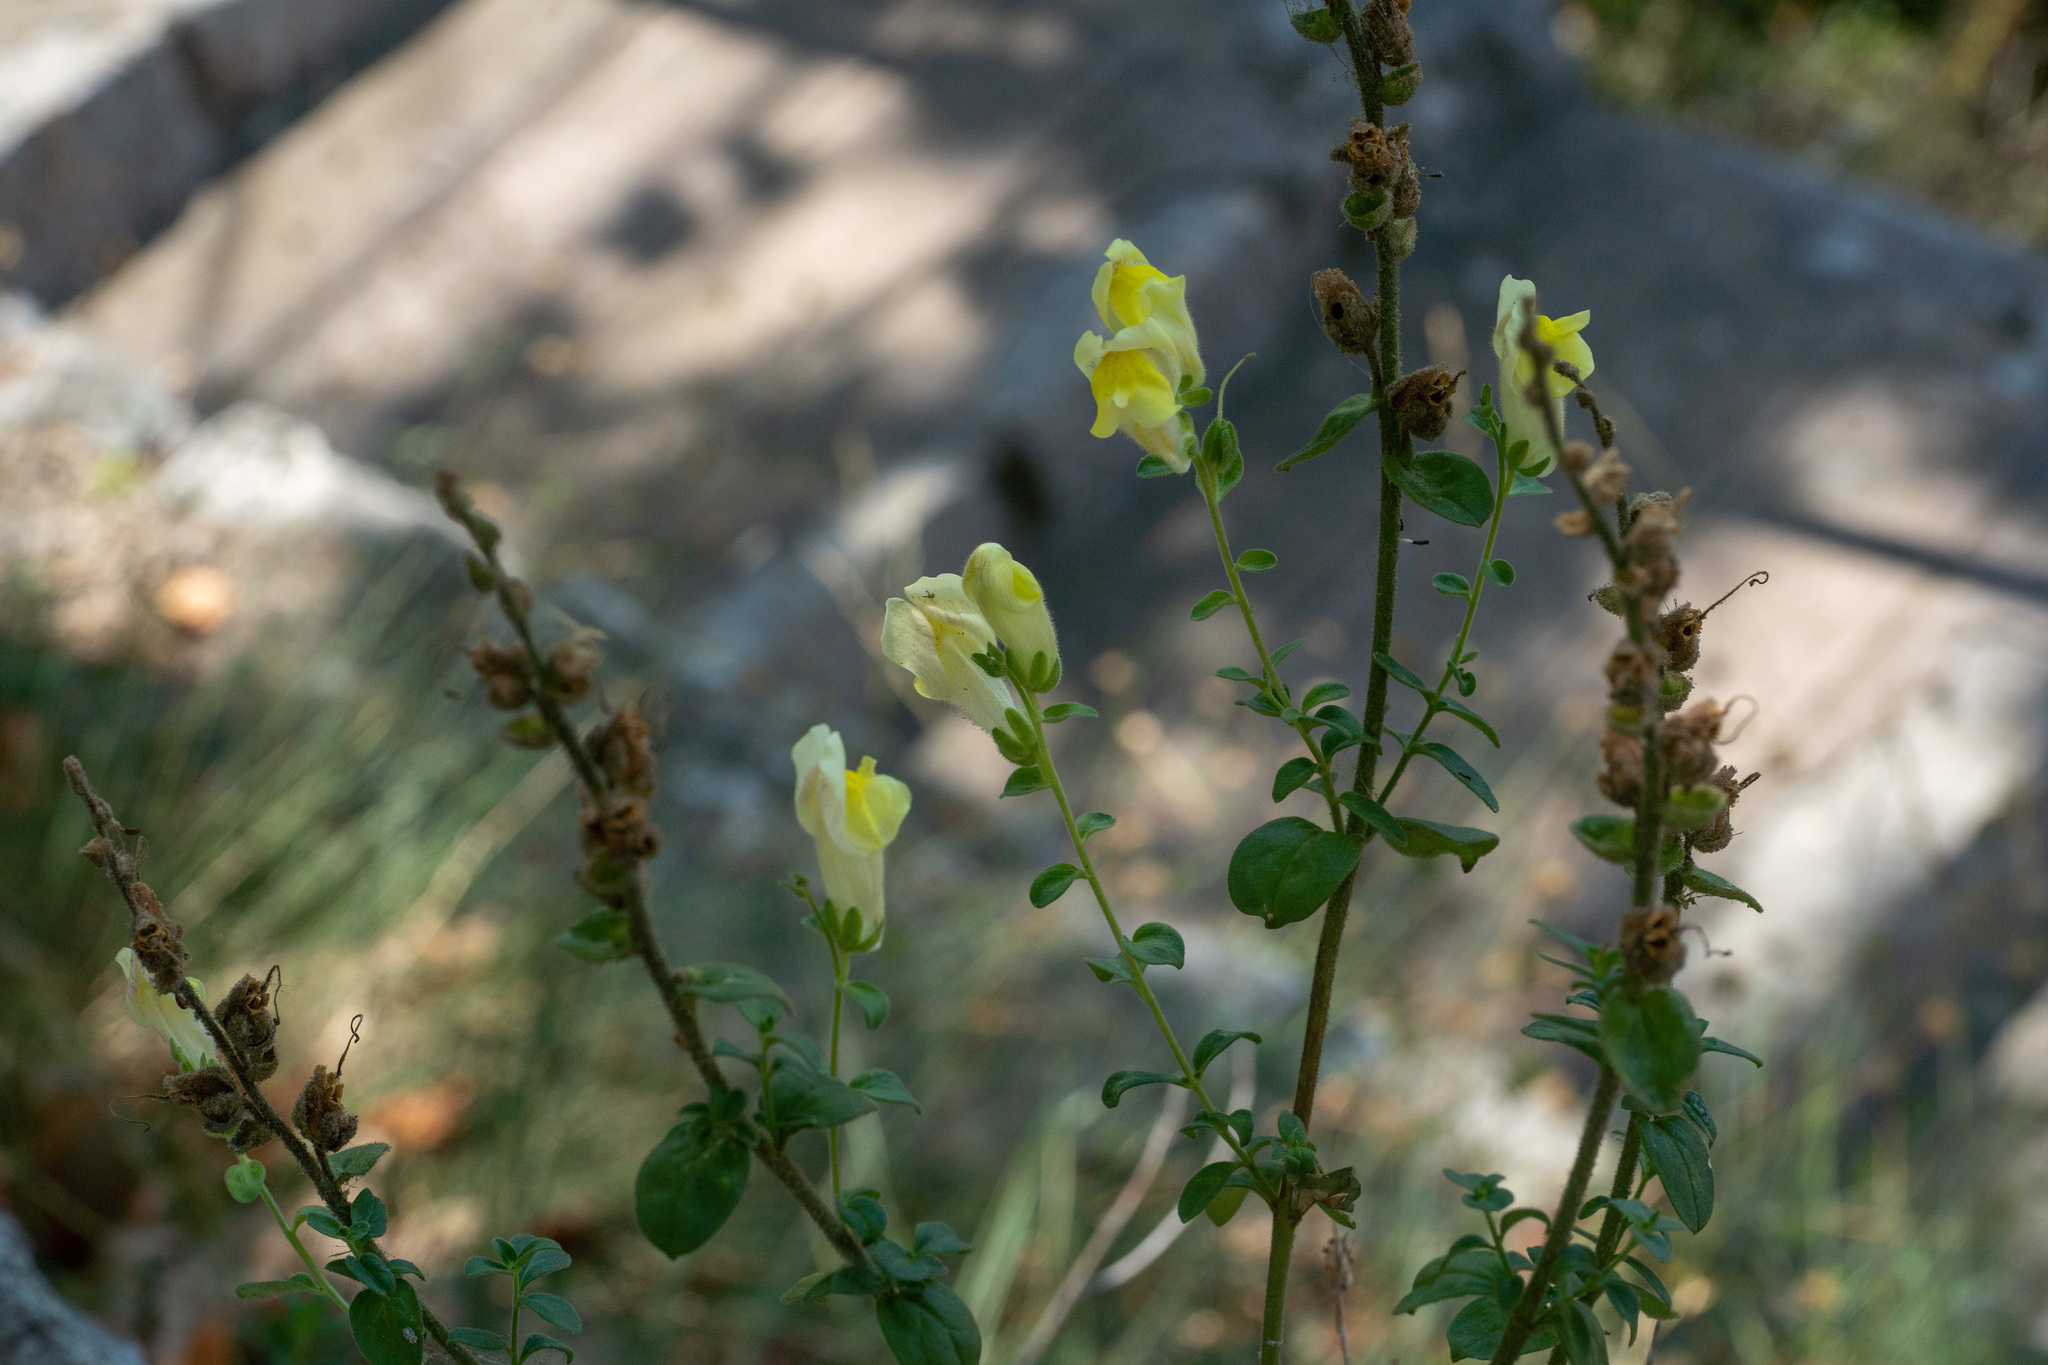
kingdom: Plantae
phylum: Tracheophyta
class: Magnoliopsida
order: Lamiales
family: Plantaginaceae
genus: Antirrhinum
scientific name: Antirrhinum latifolium
